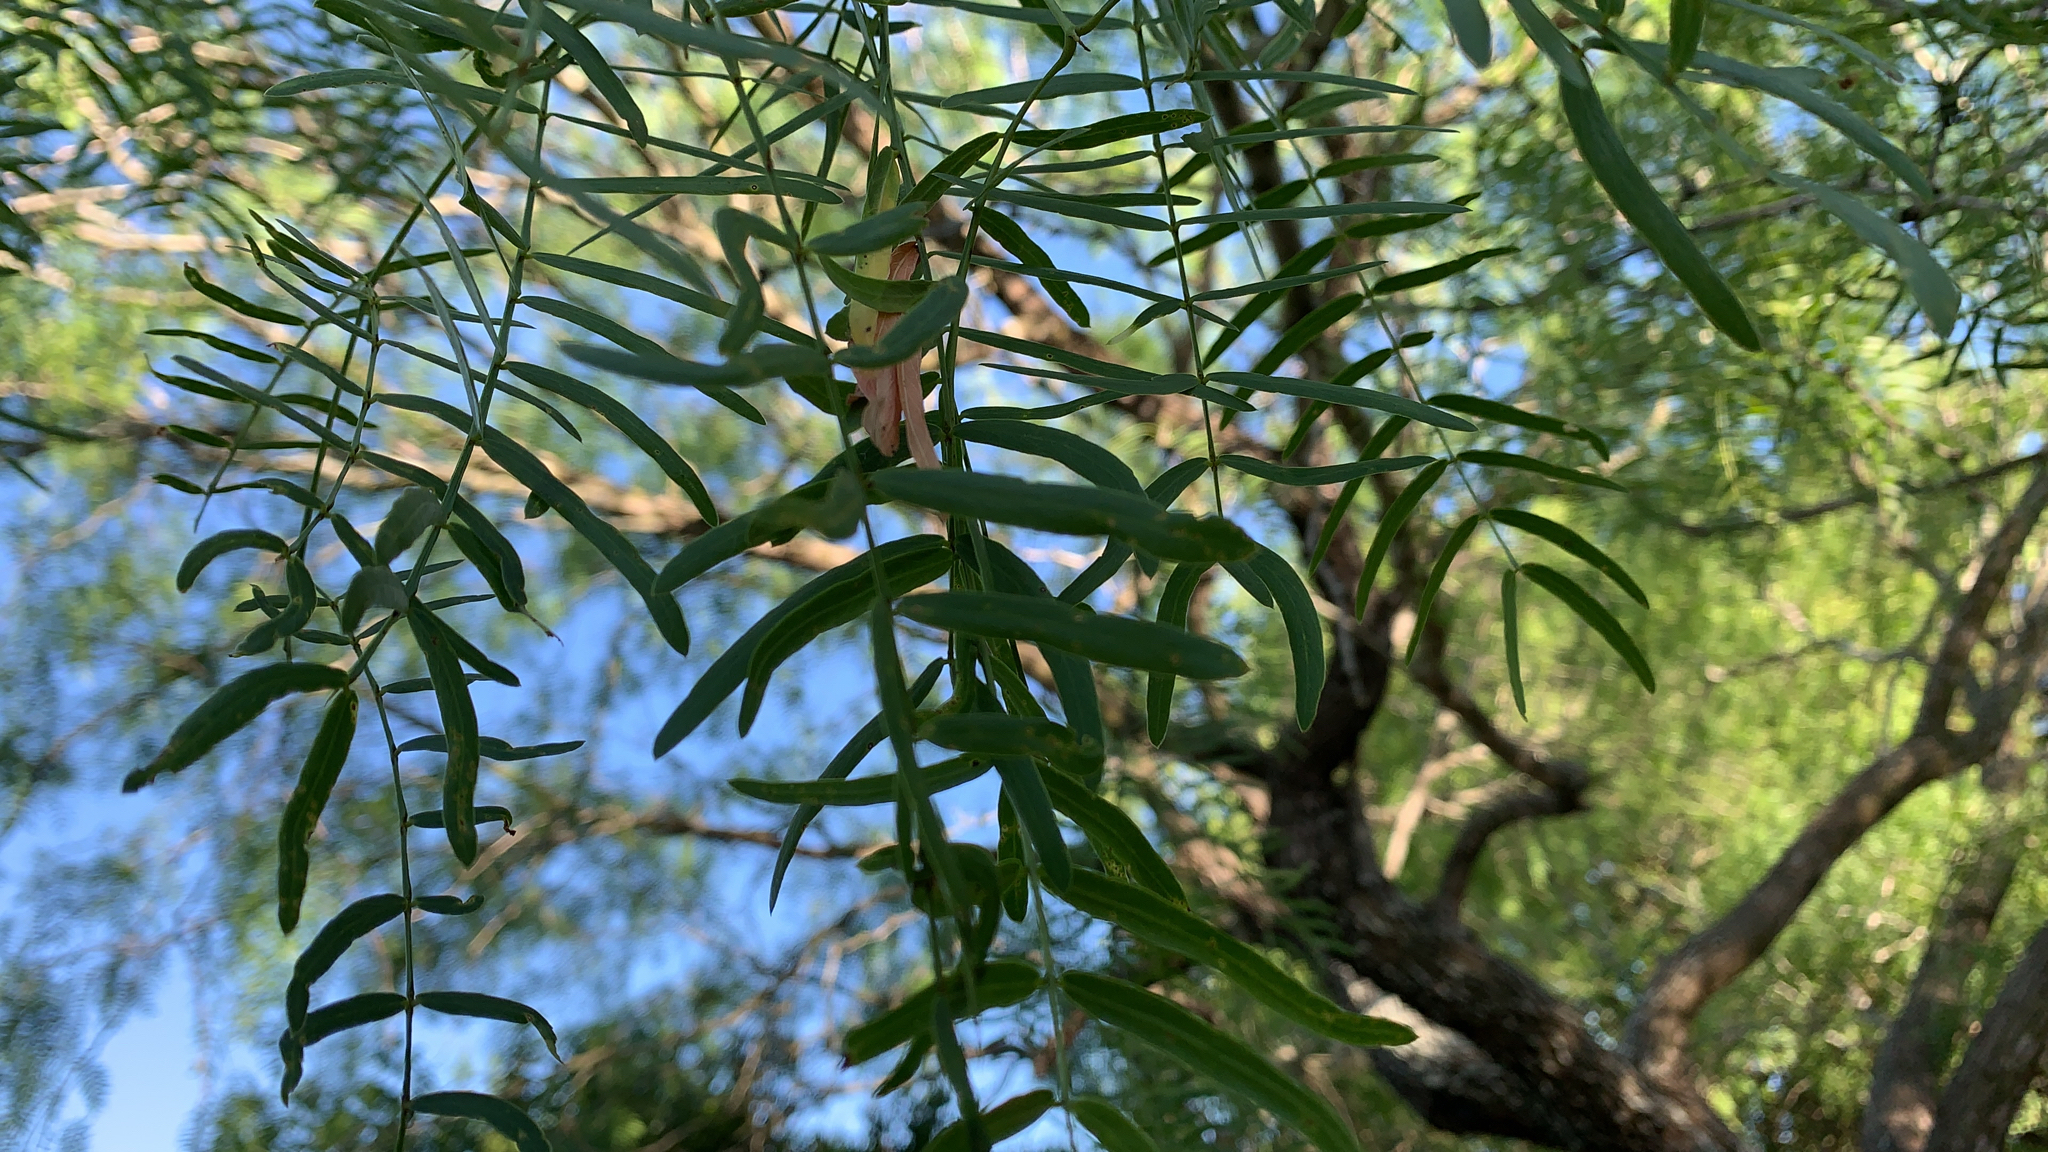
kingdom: Plantae
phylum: Tracheophyta
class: Magnoliopsida
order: Fabales
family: Fabaceae
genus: Prosopis
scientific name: Prosopis glandulosa
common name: Honey mesquite
